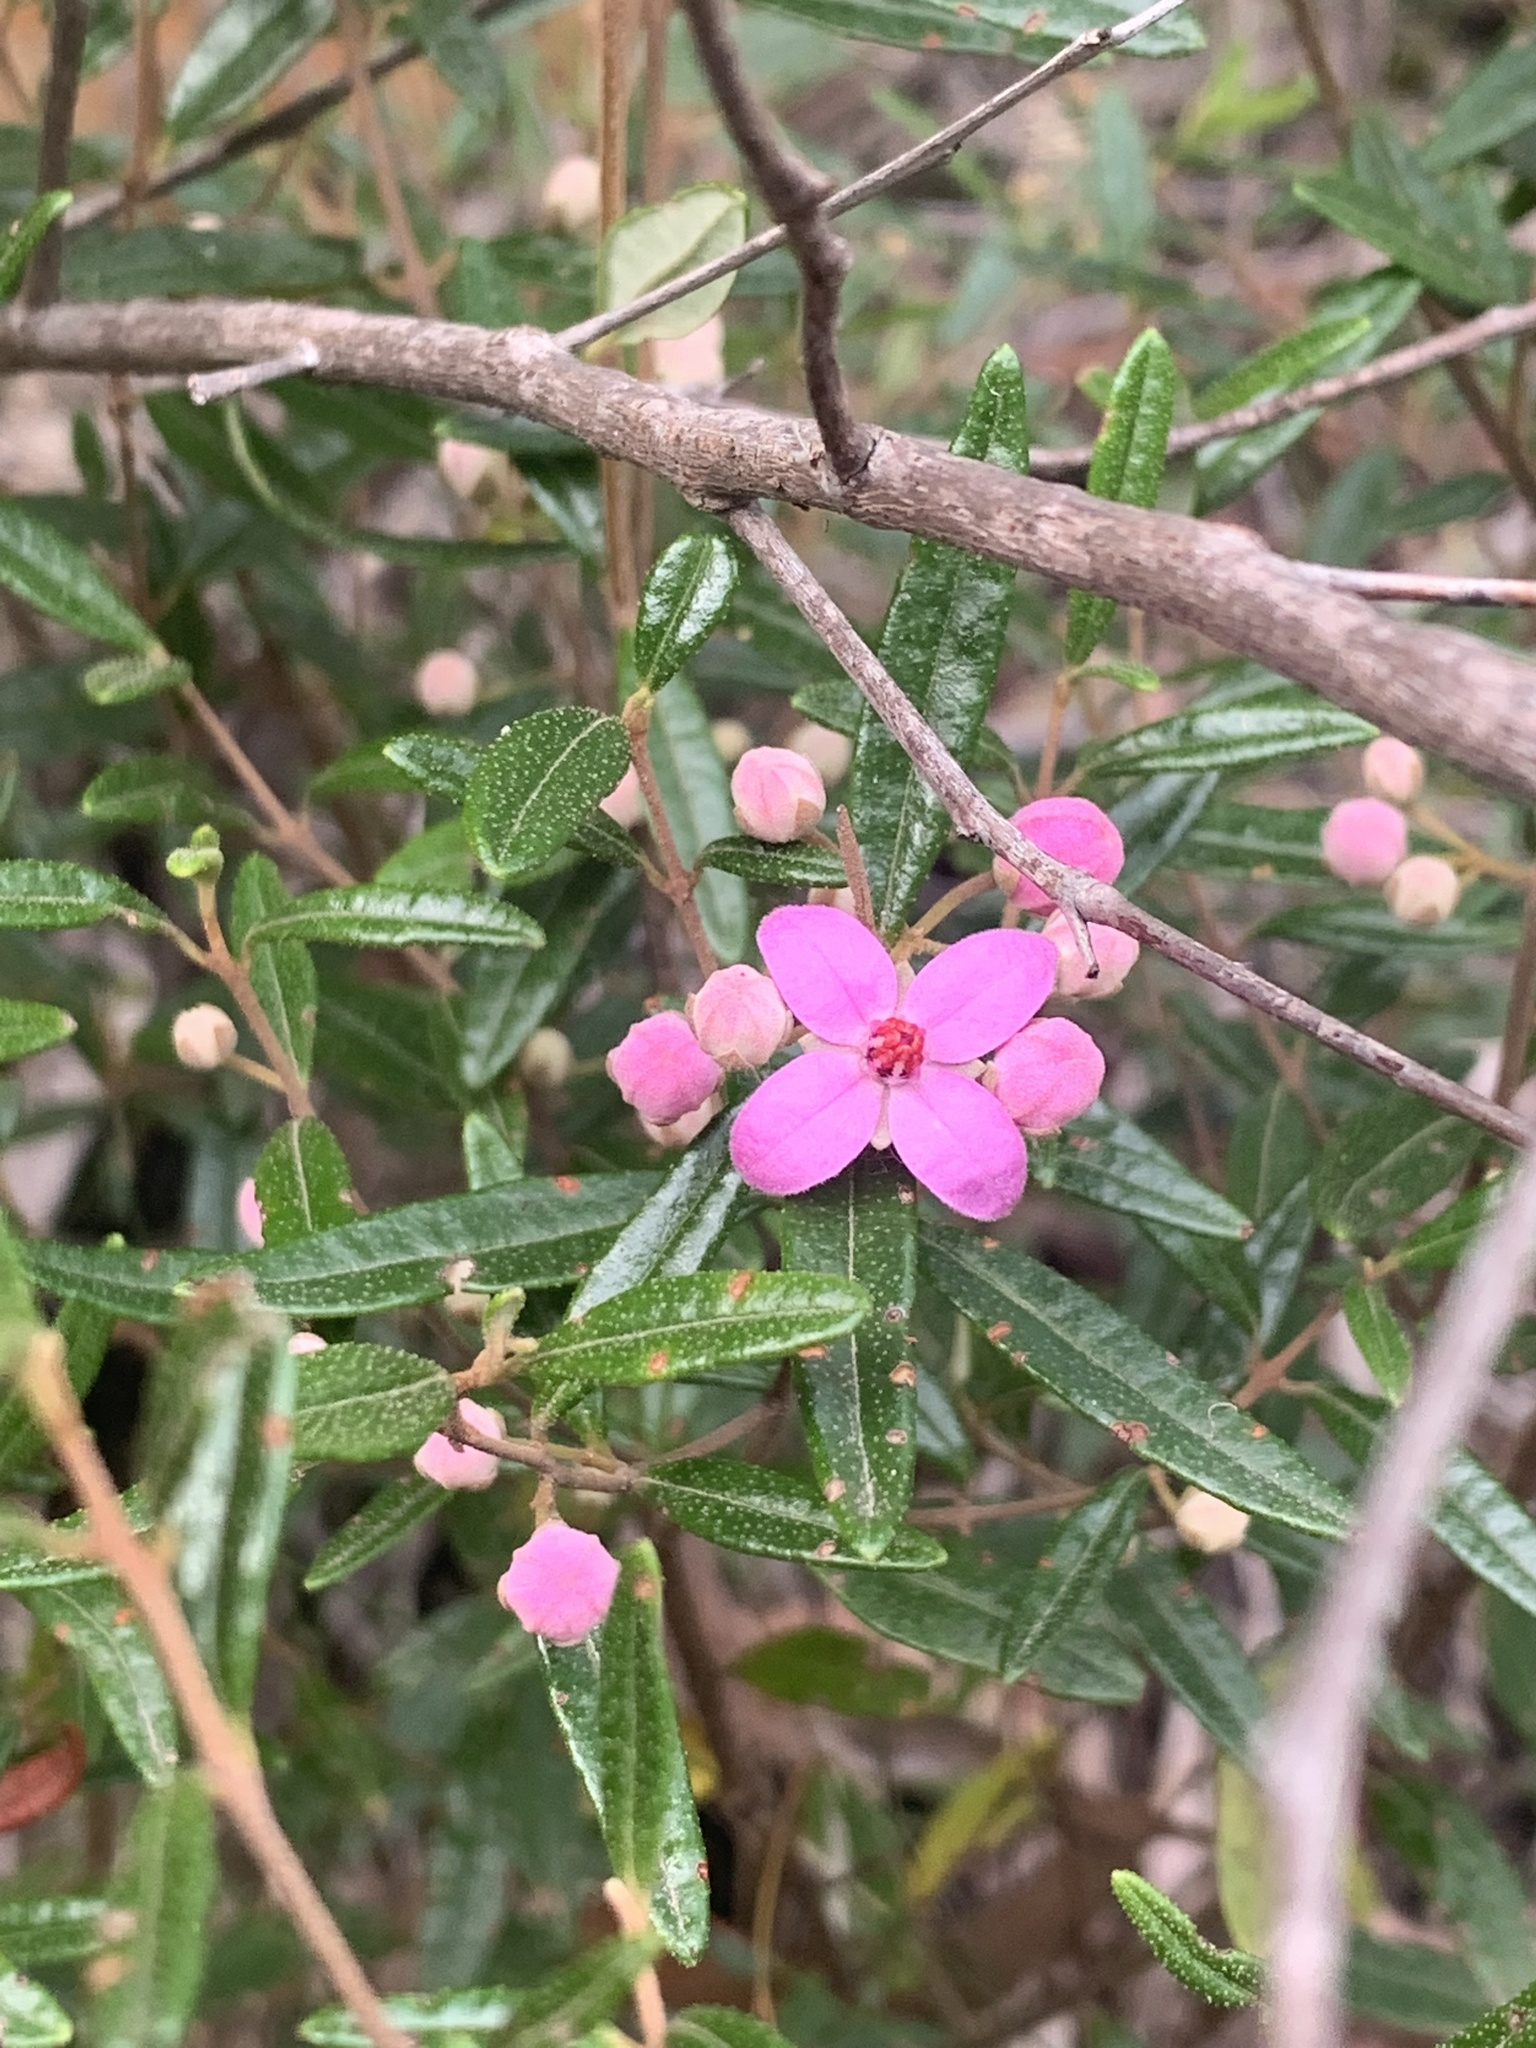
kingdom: Plantae
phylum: Tracheophyta
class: Magnoliopsida
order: Sapindales
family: Rutaceae
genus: Boronia
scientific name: Boronia ledifolia
